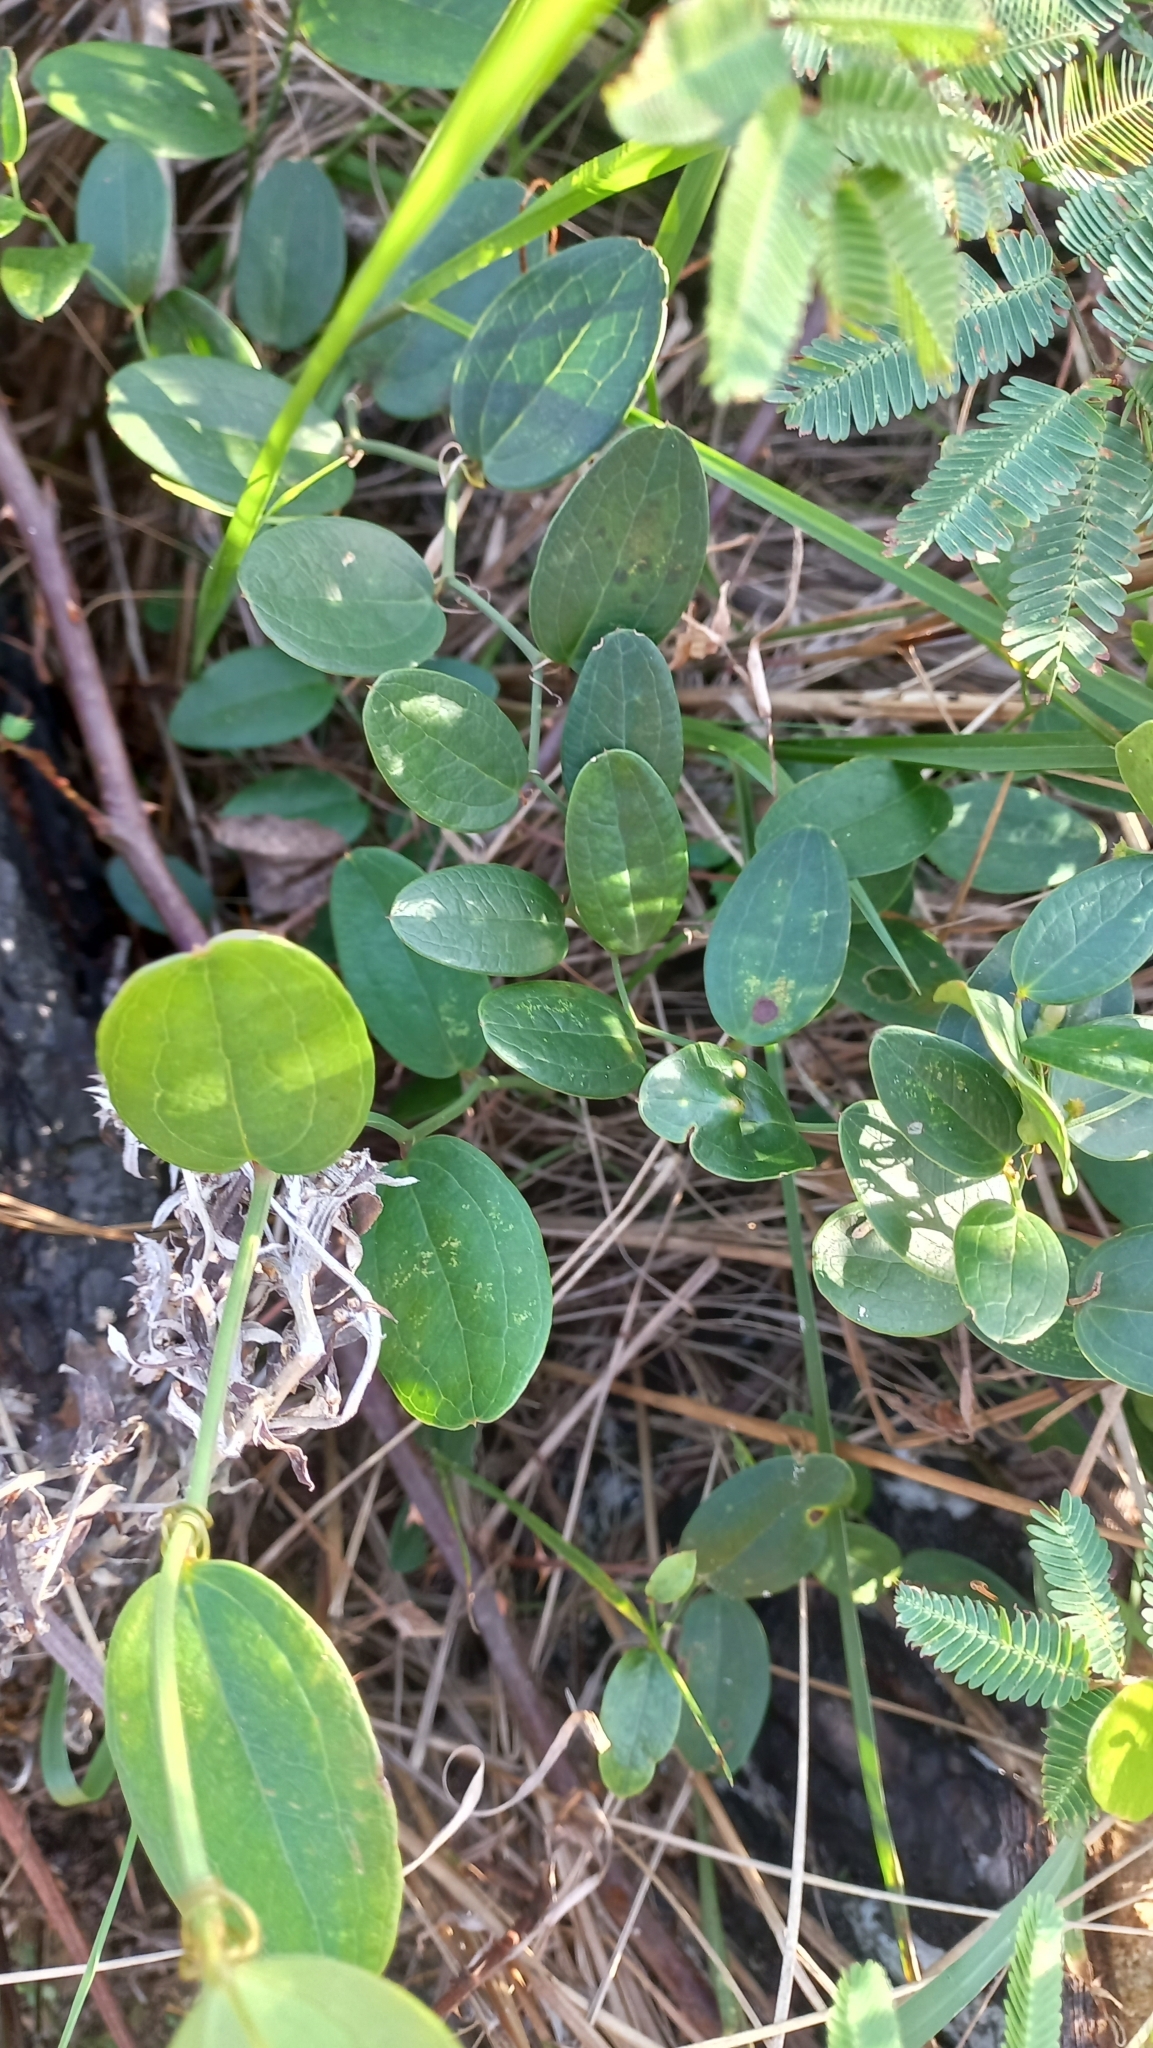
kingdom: Plantae
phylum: Tracheophyta
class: Liliopsida
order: Liliales
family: Smilacaceae
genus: Smilax
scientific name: Smilax rufescens
